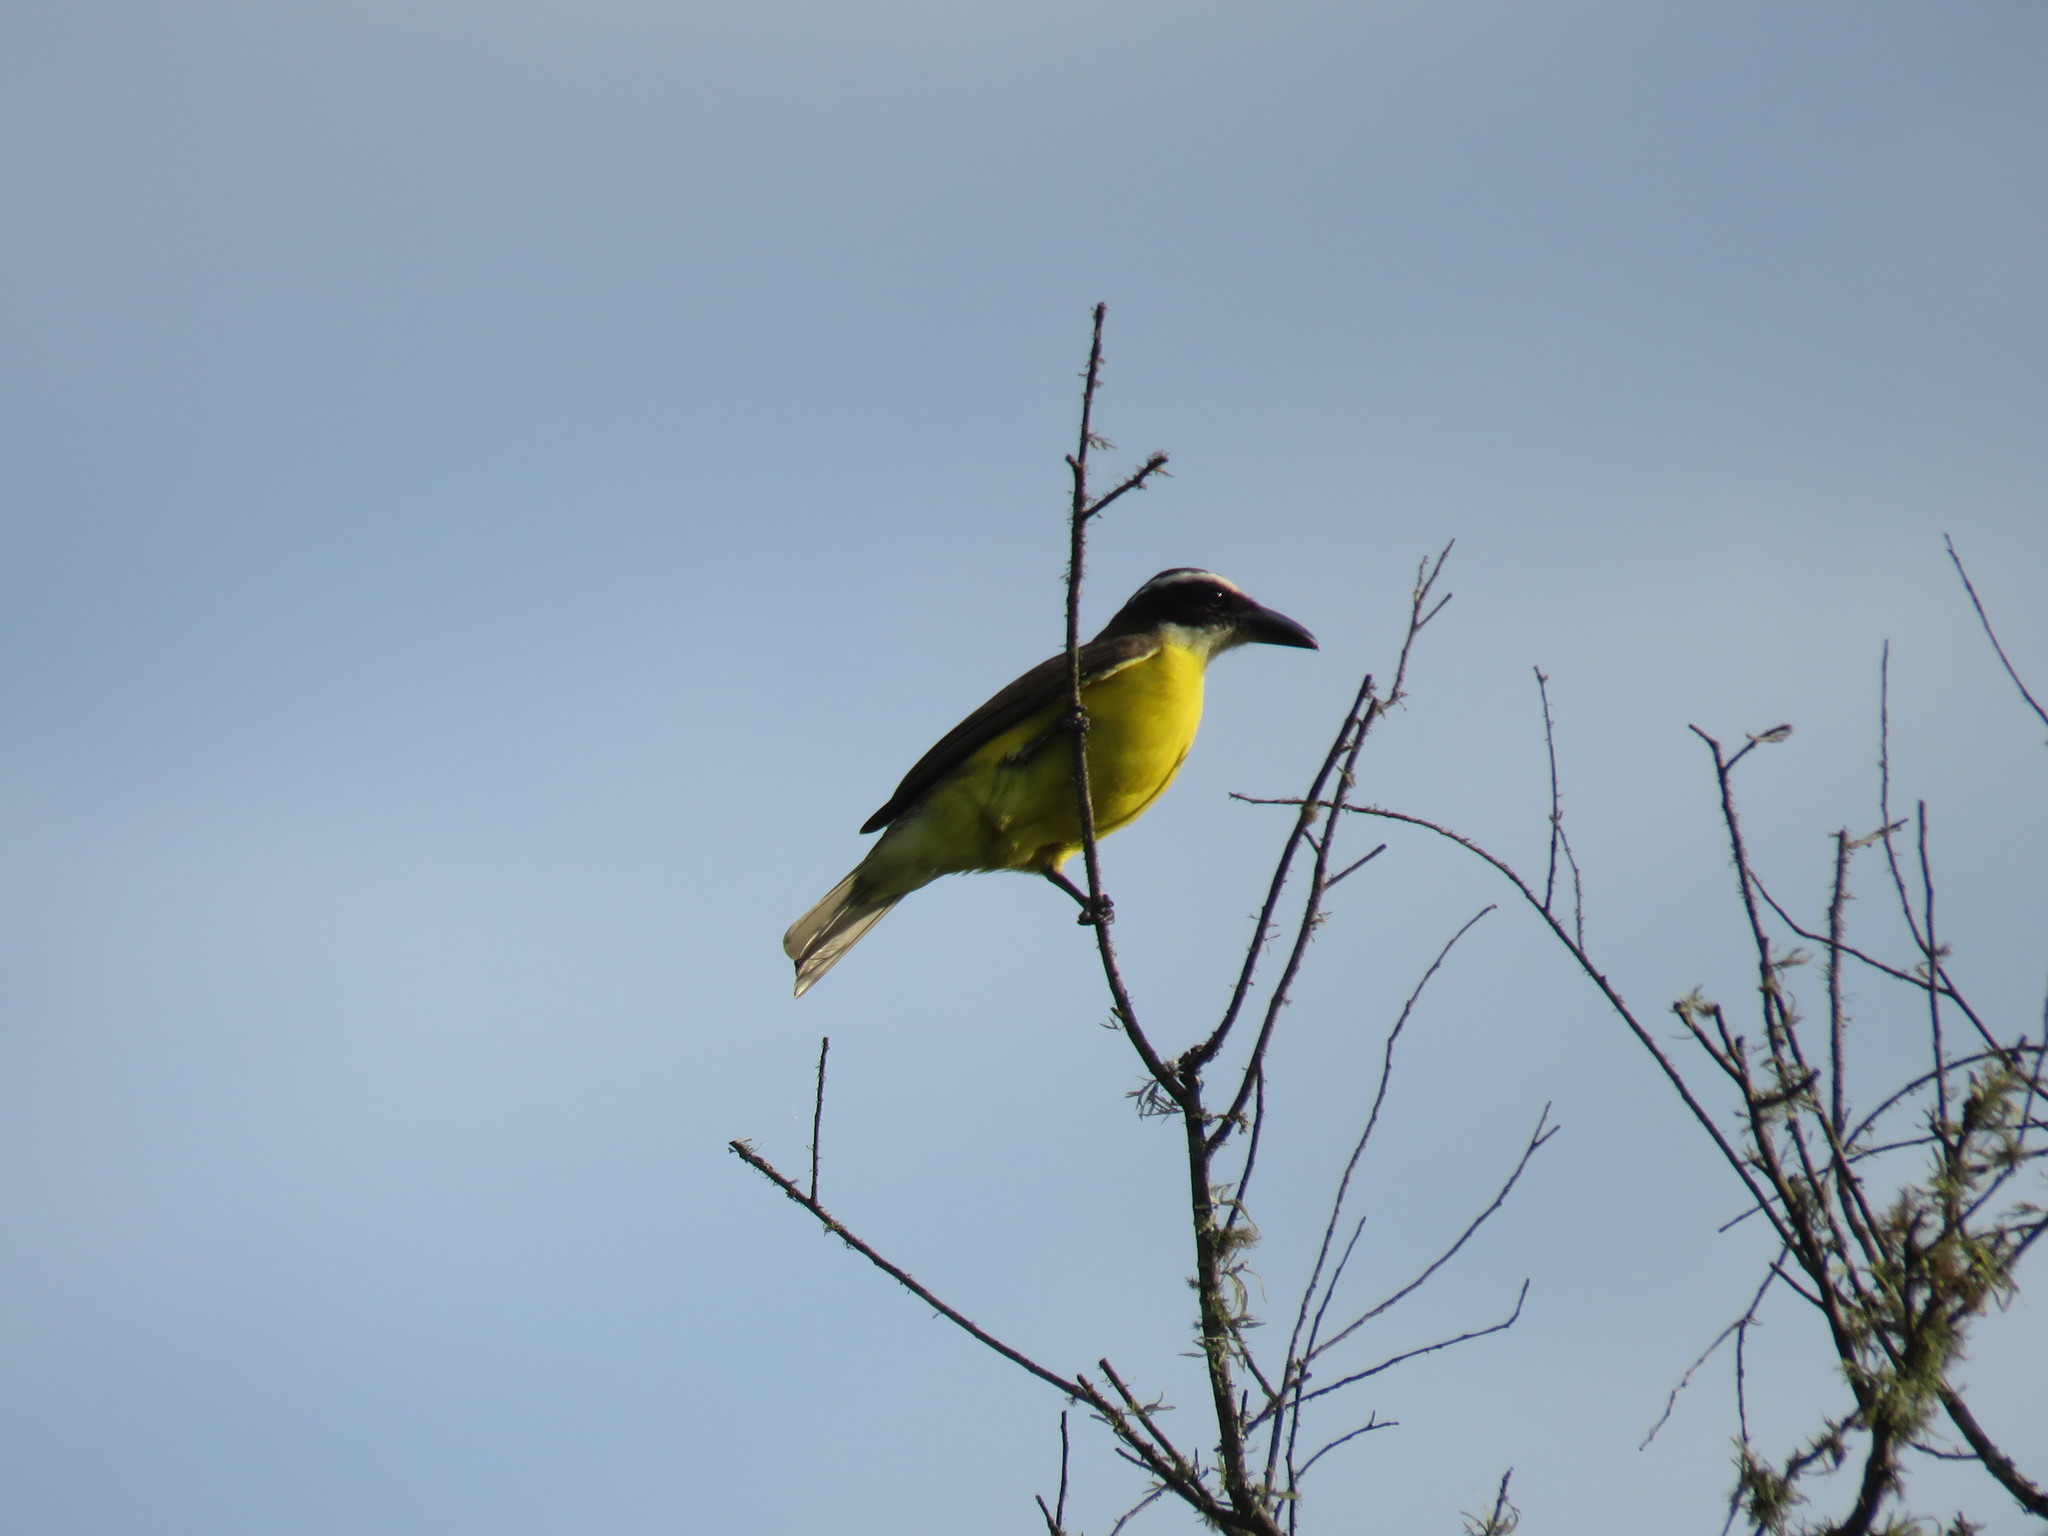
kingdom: Animalia
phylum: Chordata
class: Aves
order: Passeriformes
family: Tyrannidae
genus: Megarynchus
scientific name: Megarynchus pitangua
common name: Boat-billed flycatcher
